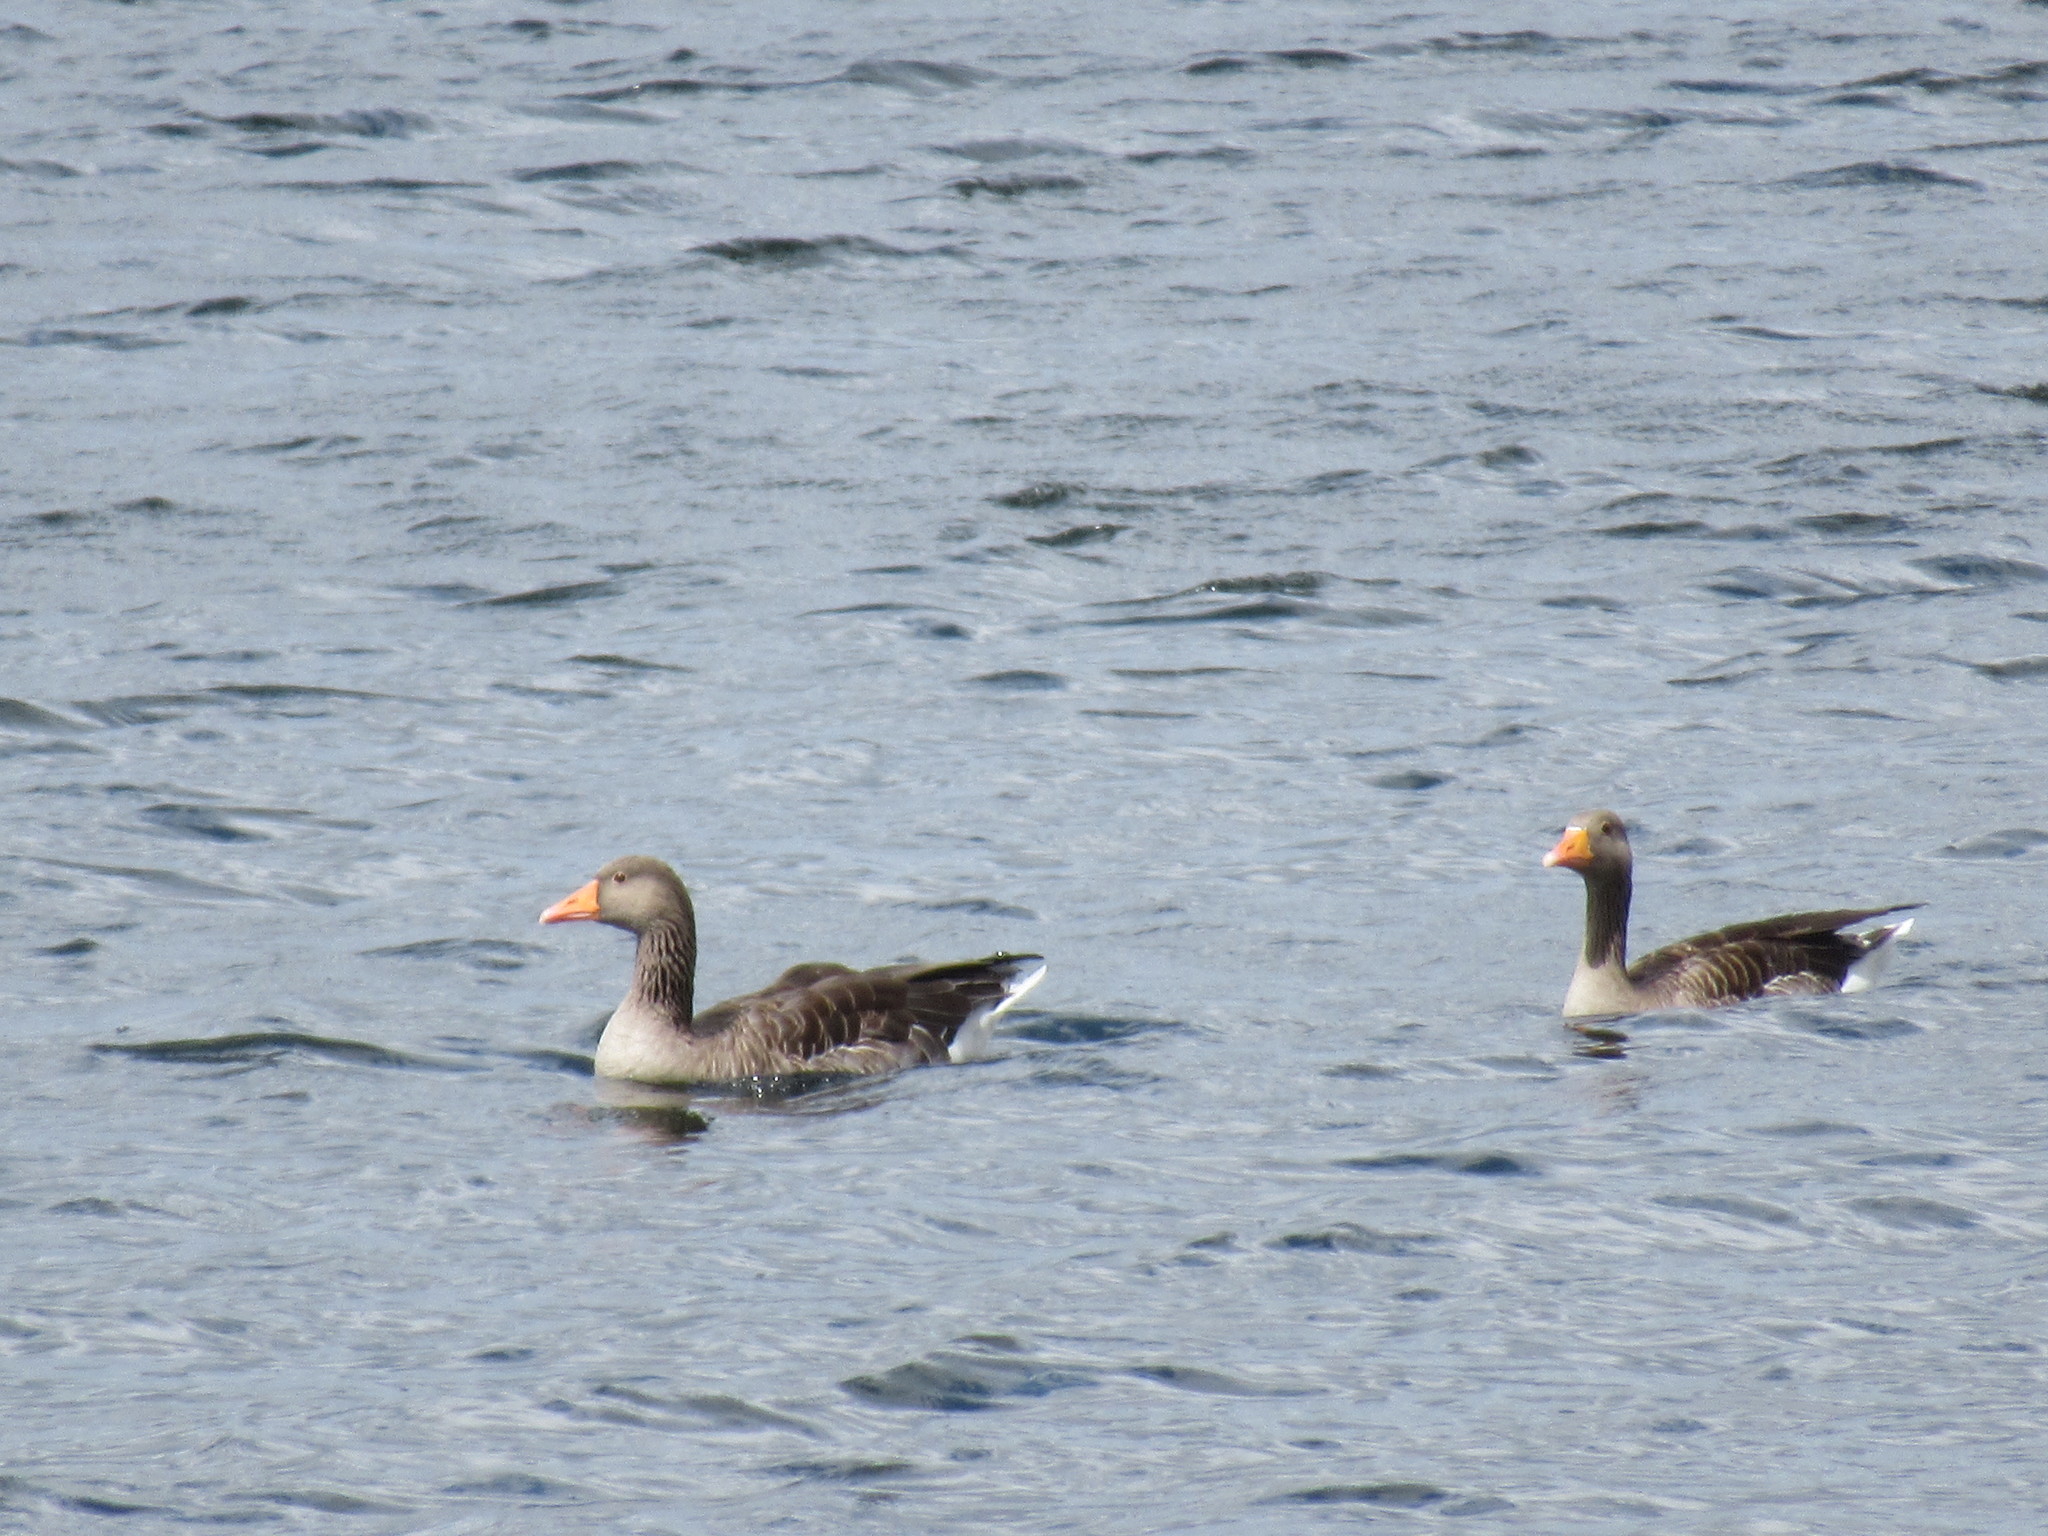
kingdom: Animalia
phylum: Chordata
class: Aves
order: Anseriformes
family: Anatidae
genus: Anser
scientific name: Anser anser
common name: Greylag goose
